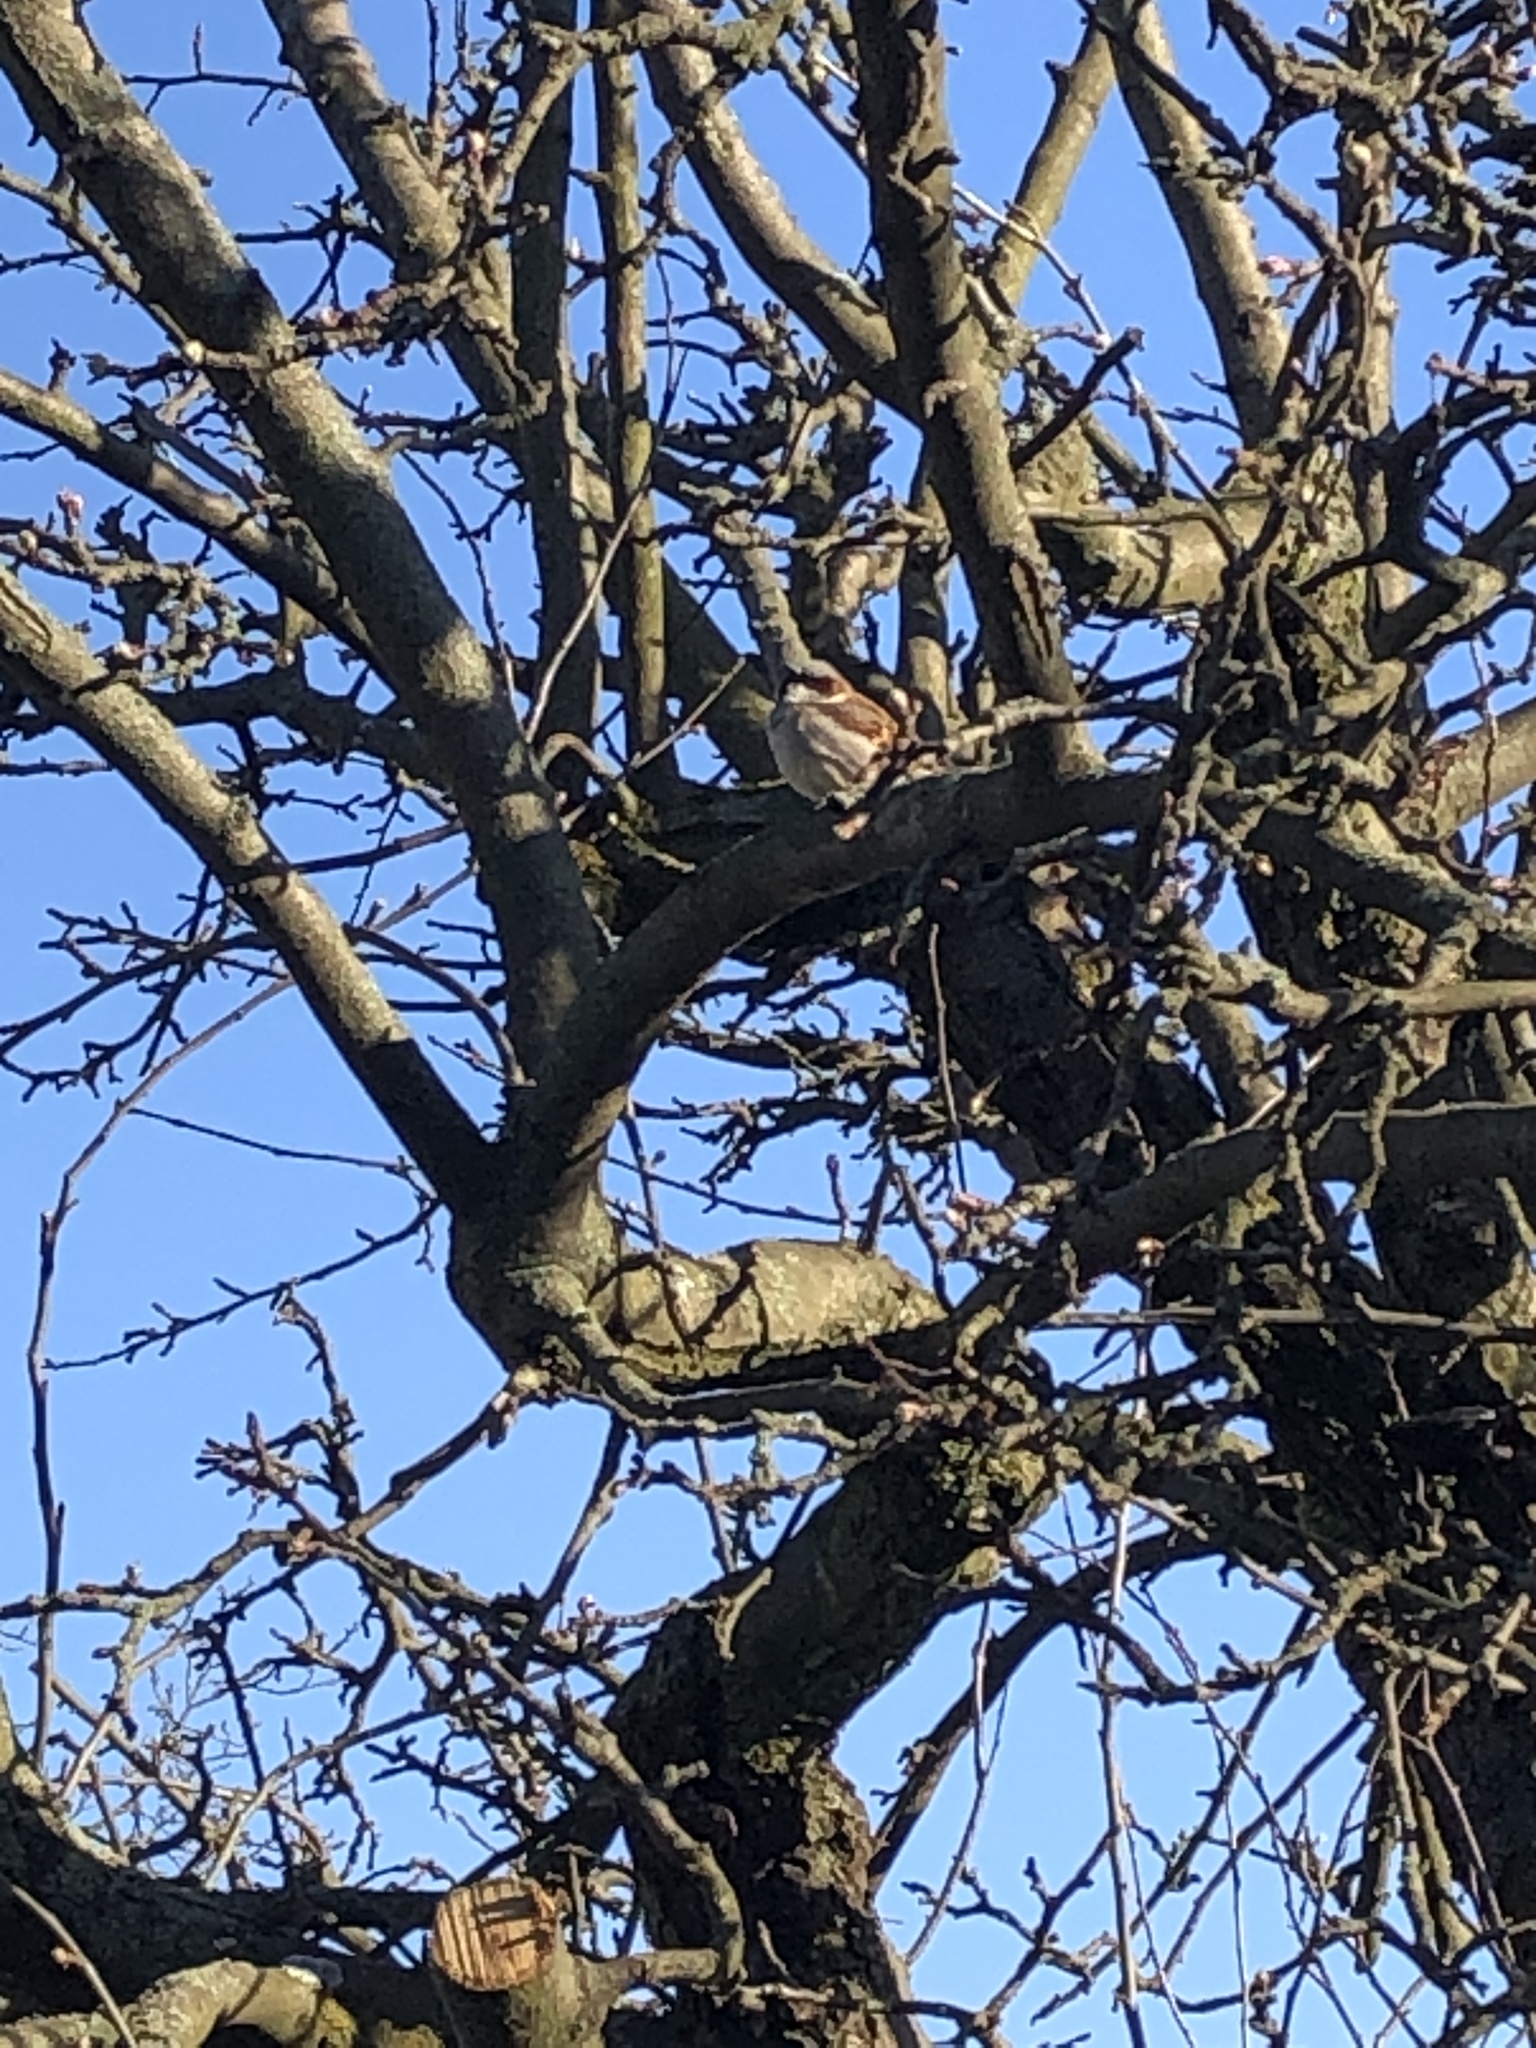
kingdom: Animalia
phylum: Chordata
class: Aves
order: Passeriformes
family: Passeridae
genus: Passer
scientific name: Passer domesticus
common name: House sparrow
